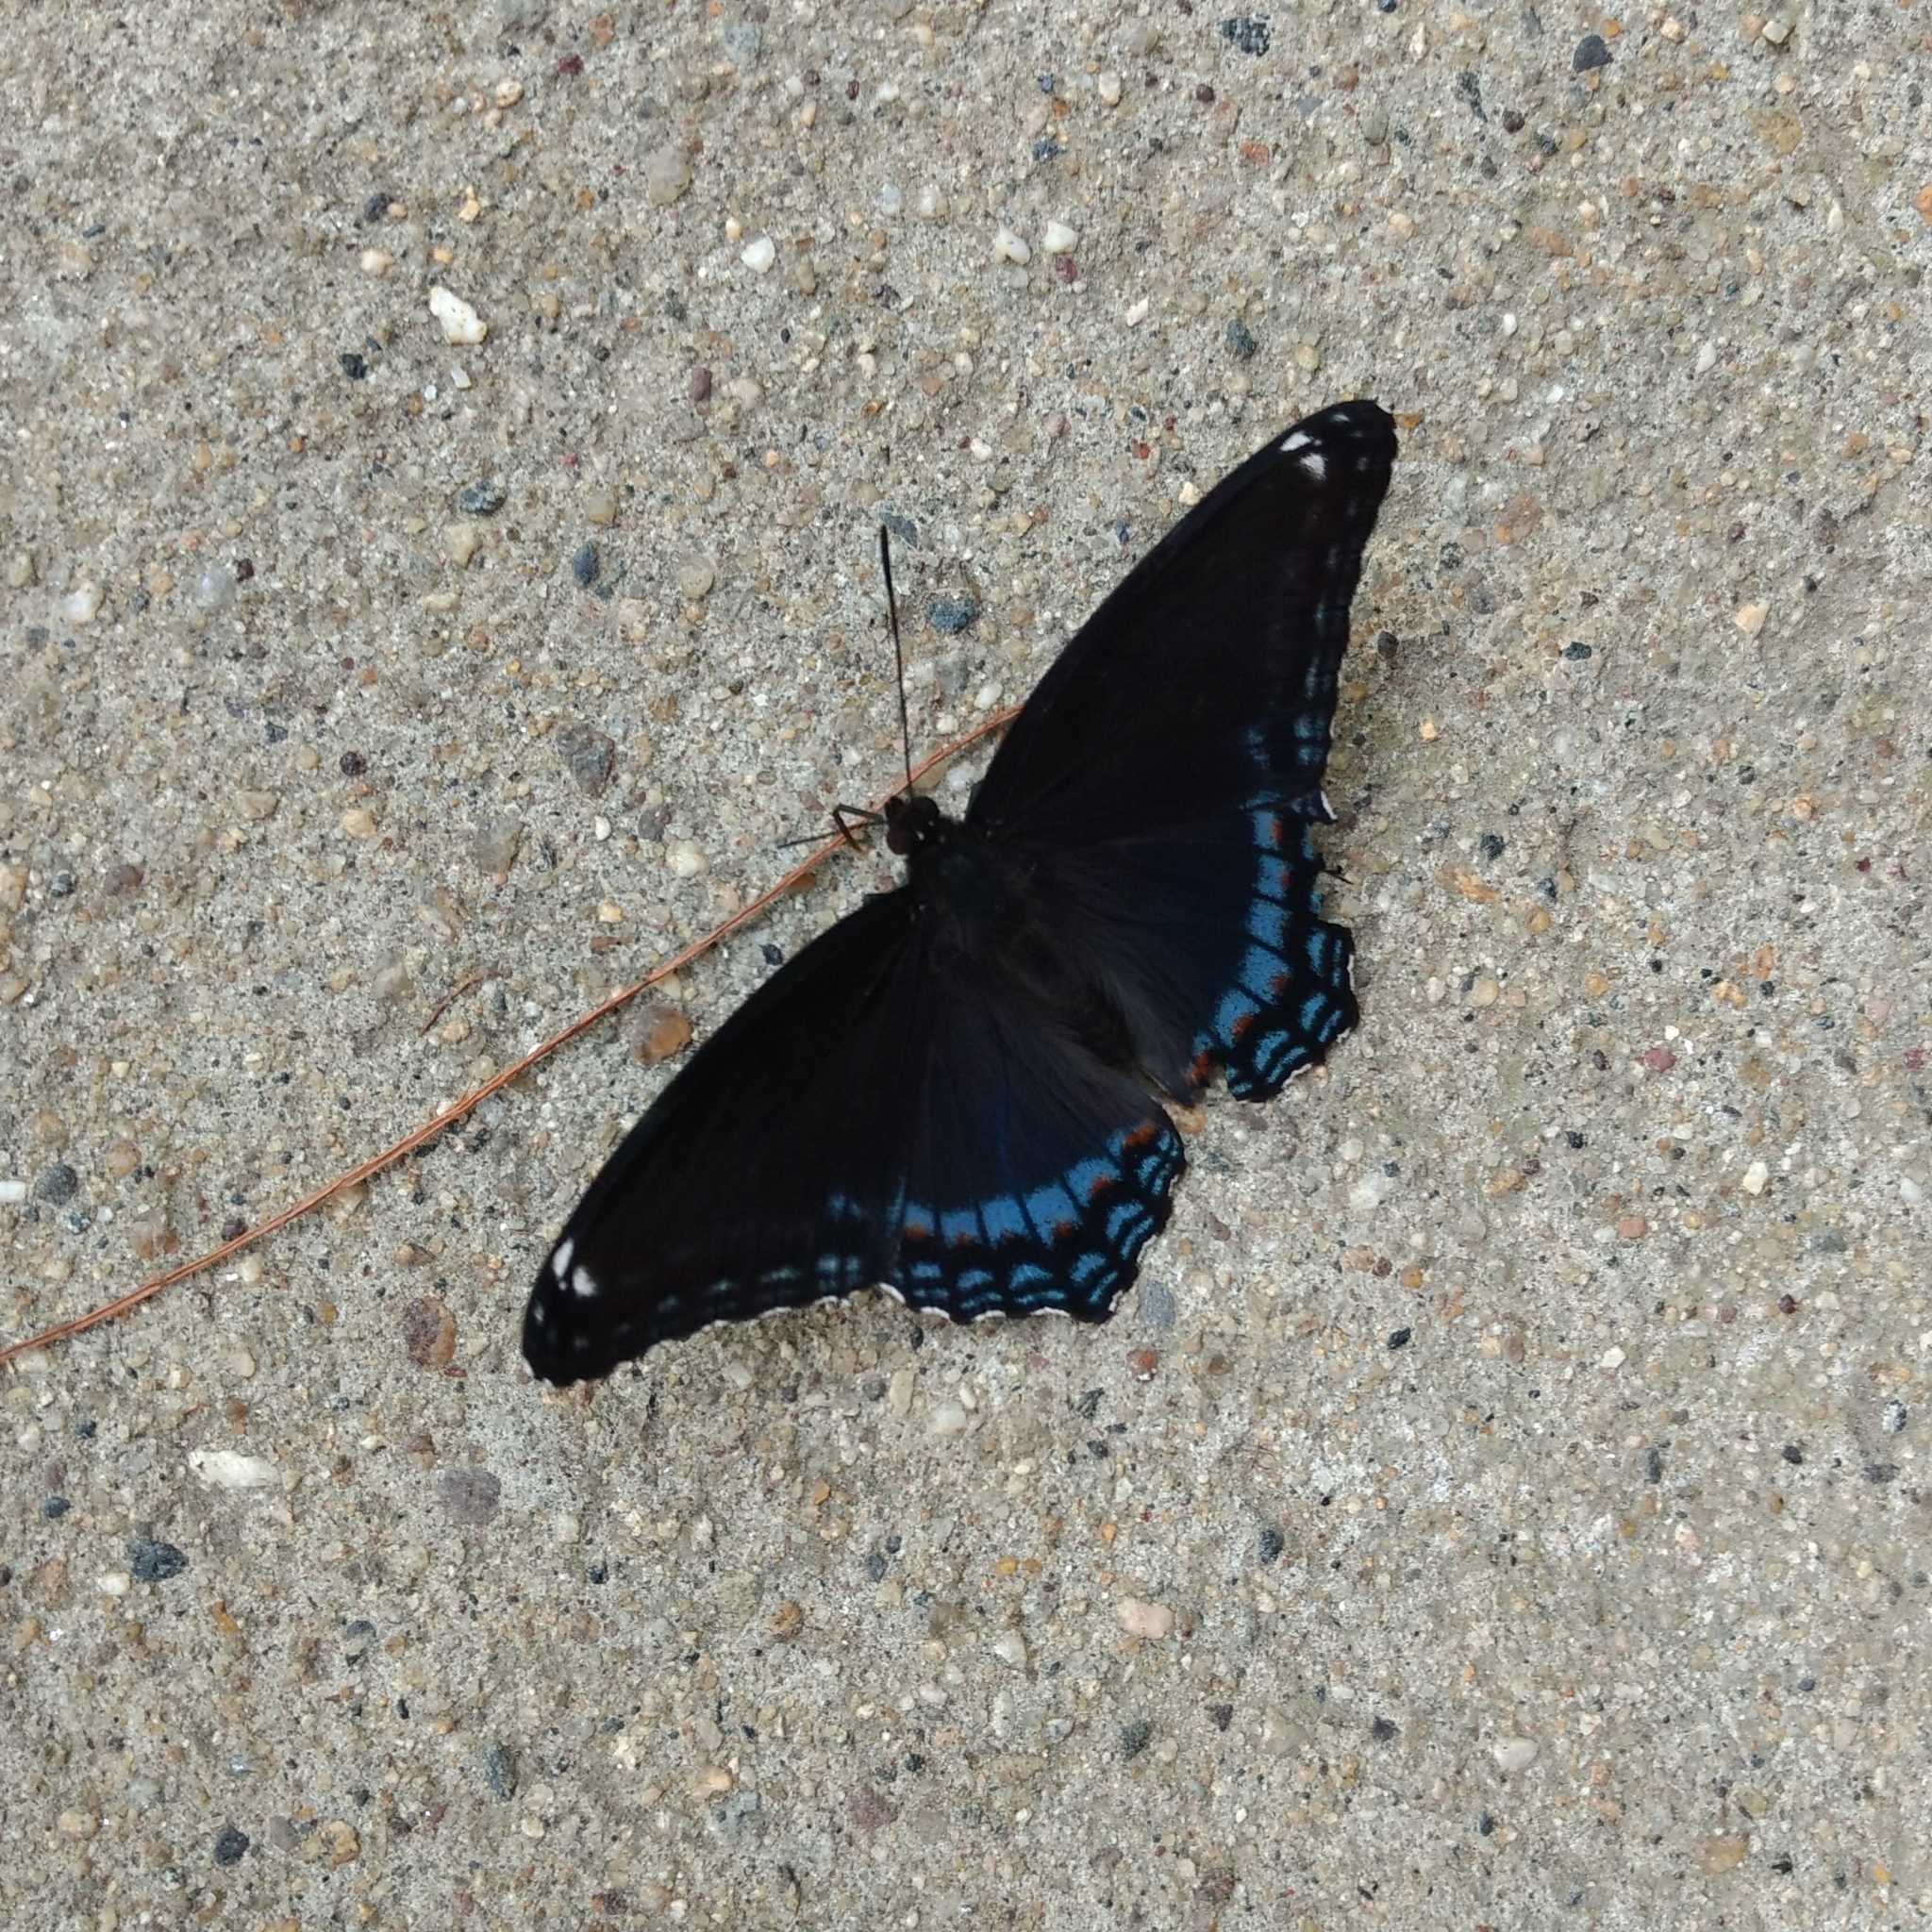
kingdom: Animalia
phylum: Arthropoda
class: Insecta
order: Lepidoptera
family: Nymphalidae
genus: Limenitis
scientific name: Limenitis arthemis
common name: Red-spotted admiral
